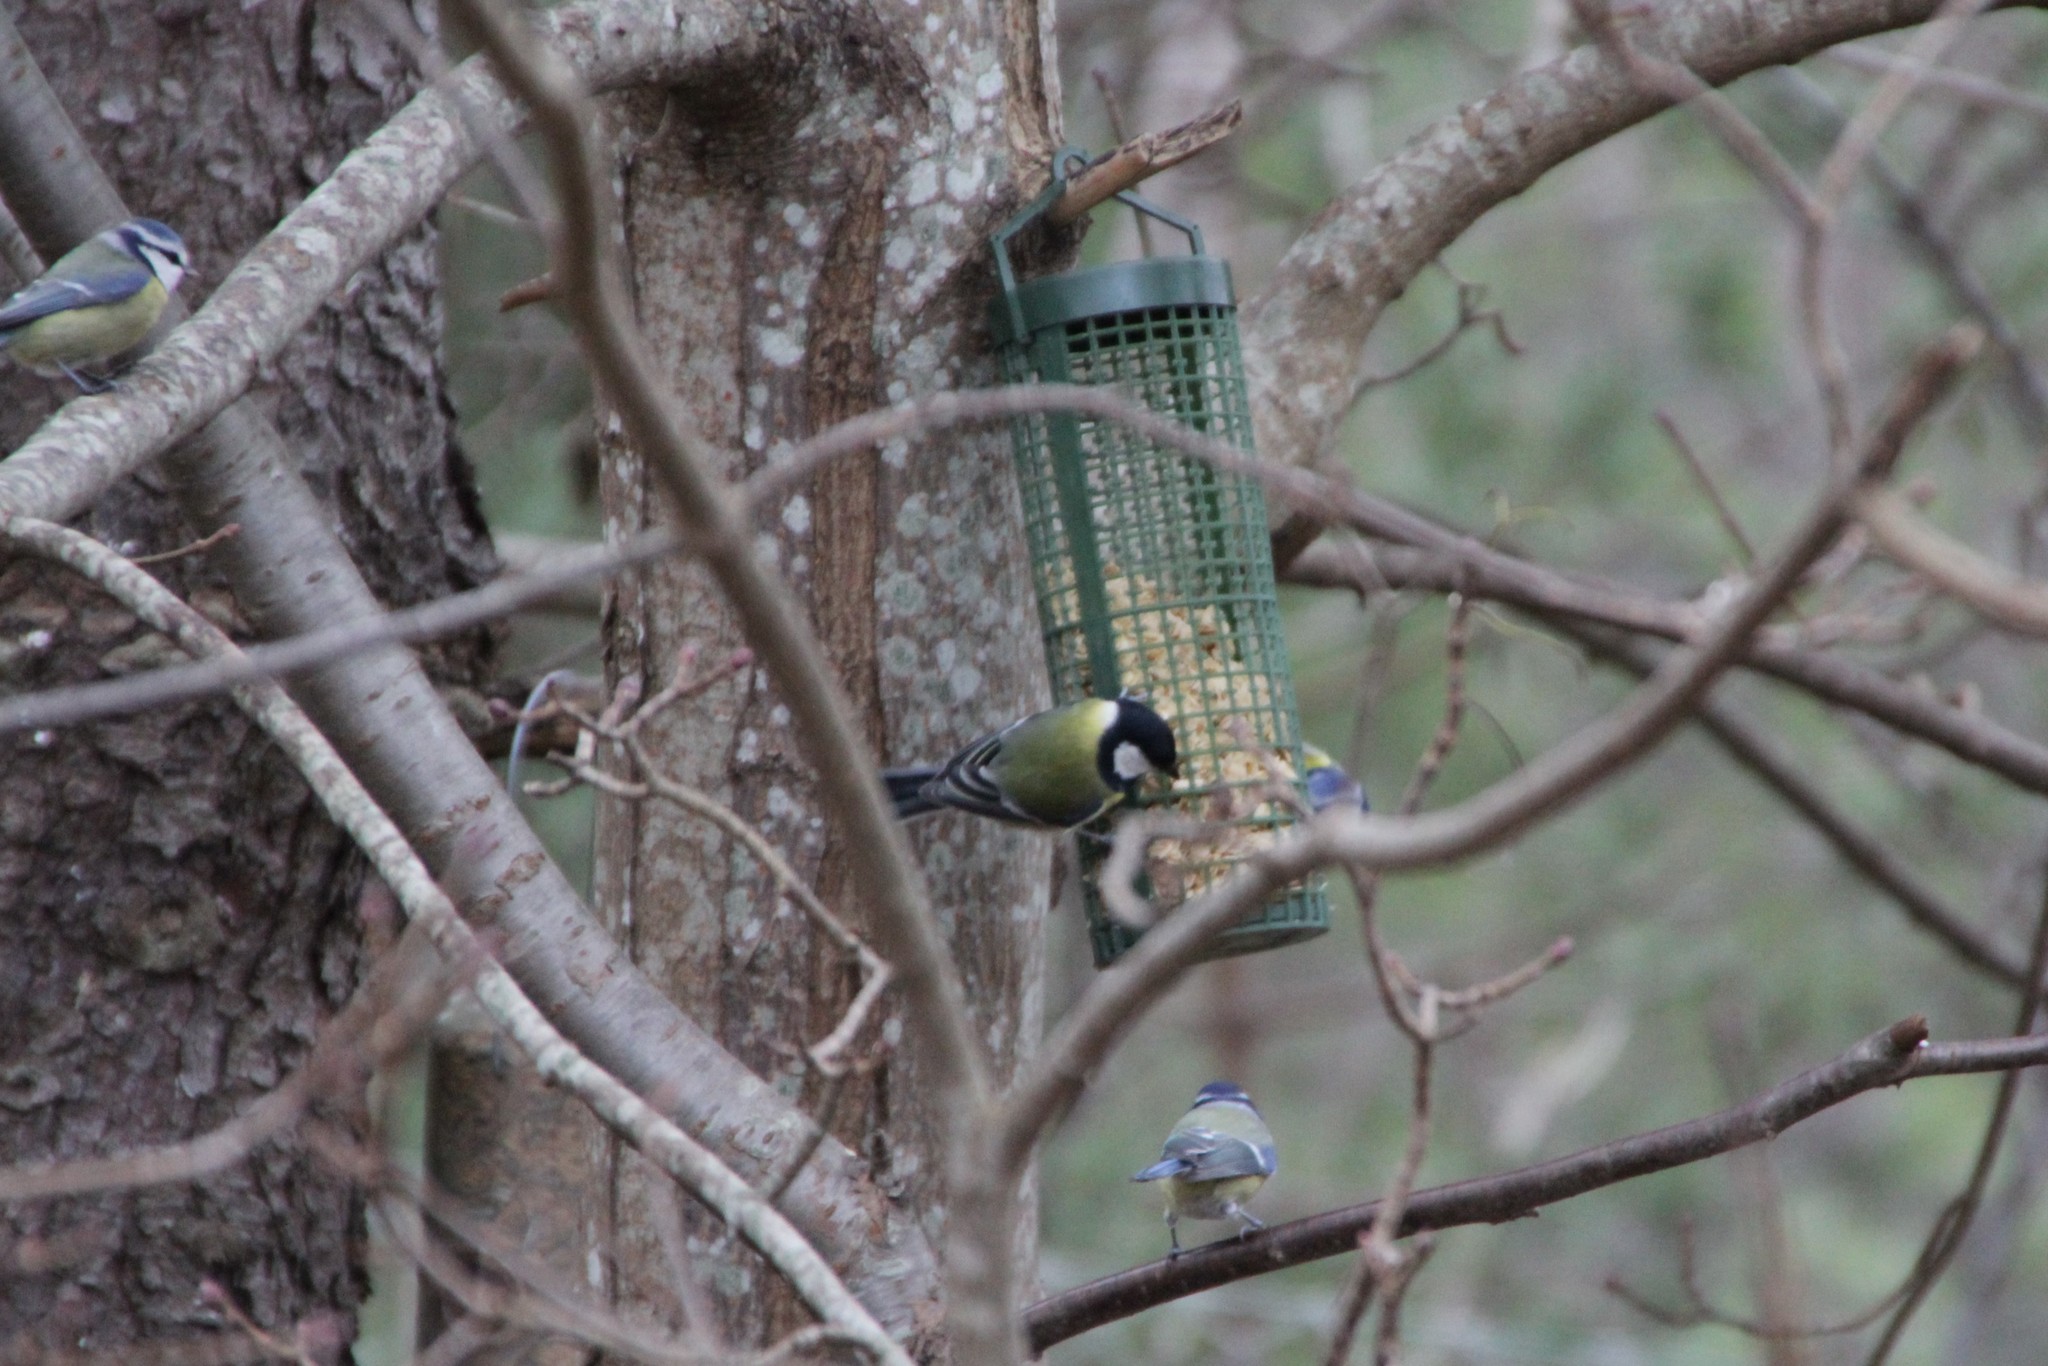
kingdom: Animalia
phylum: Chordata
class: Aves
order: Passeriformes
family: Paridae
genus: Parus
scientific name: Parus major
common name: Great tit
